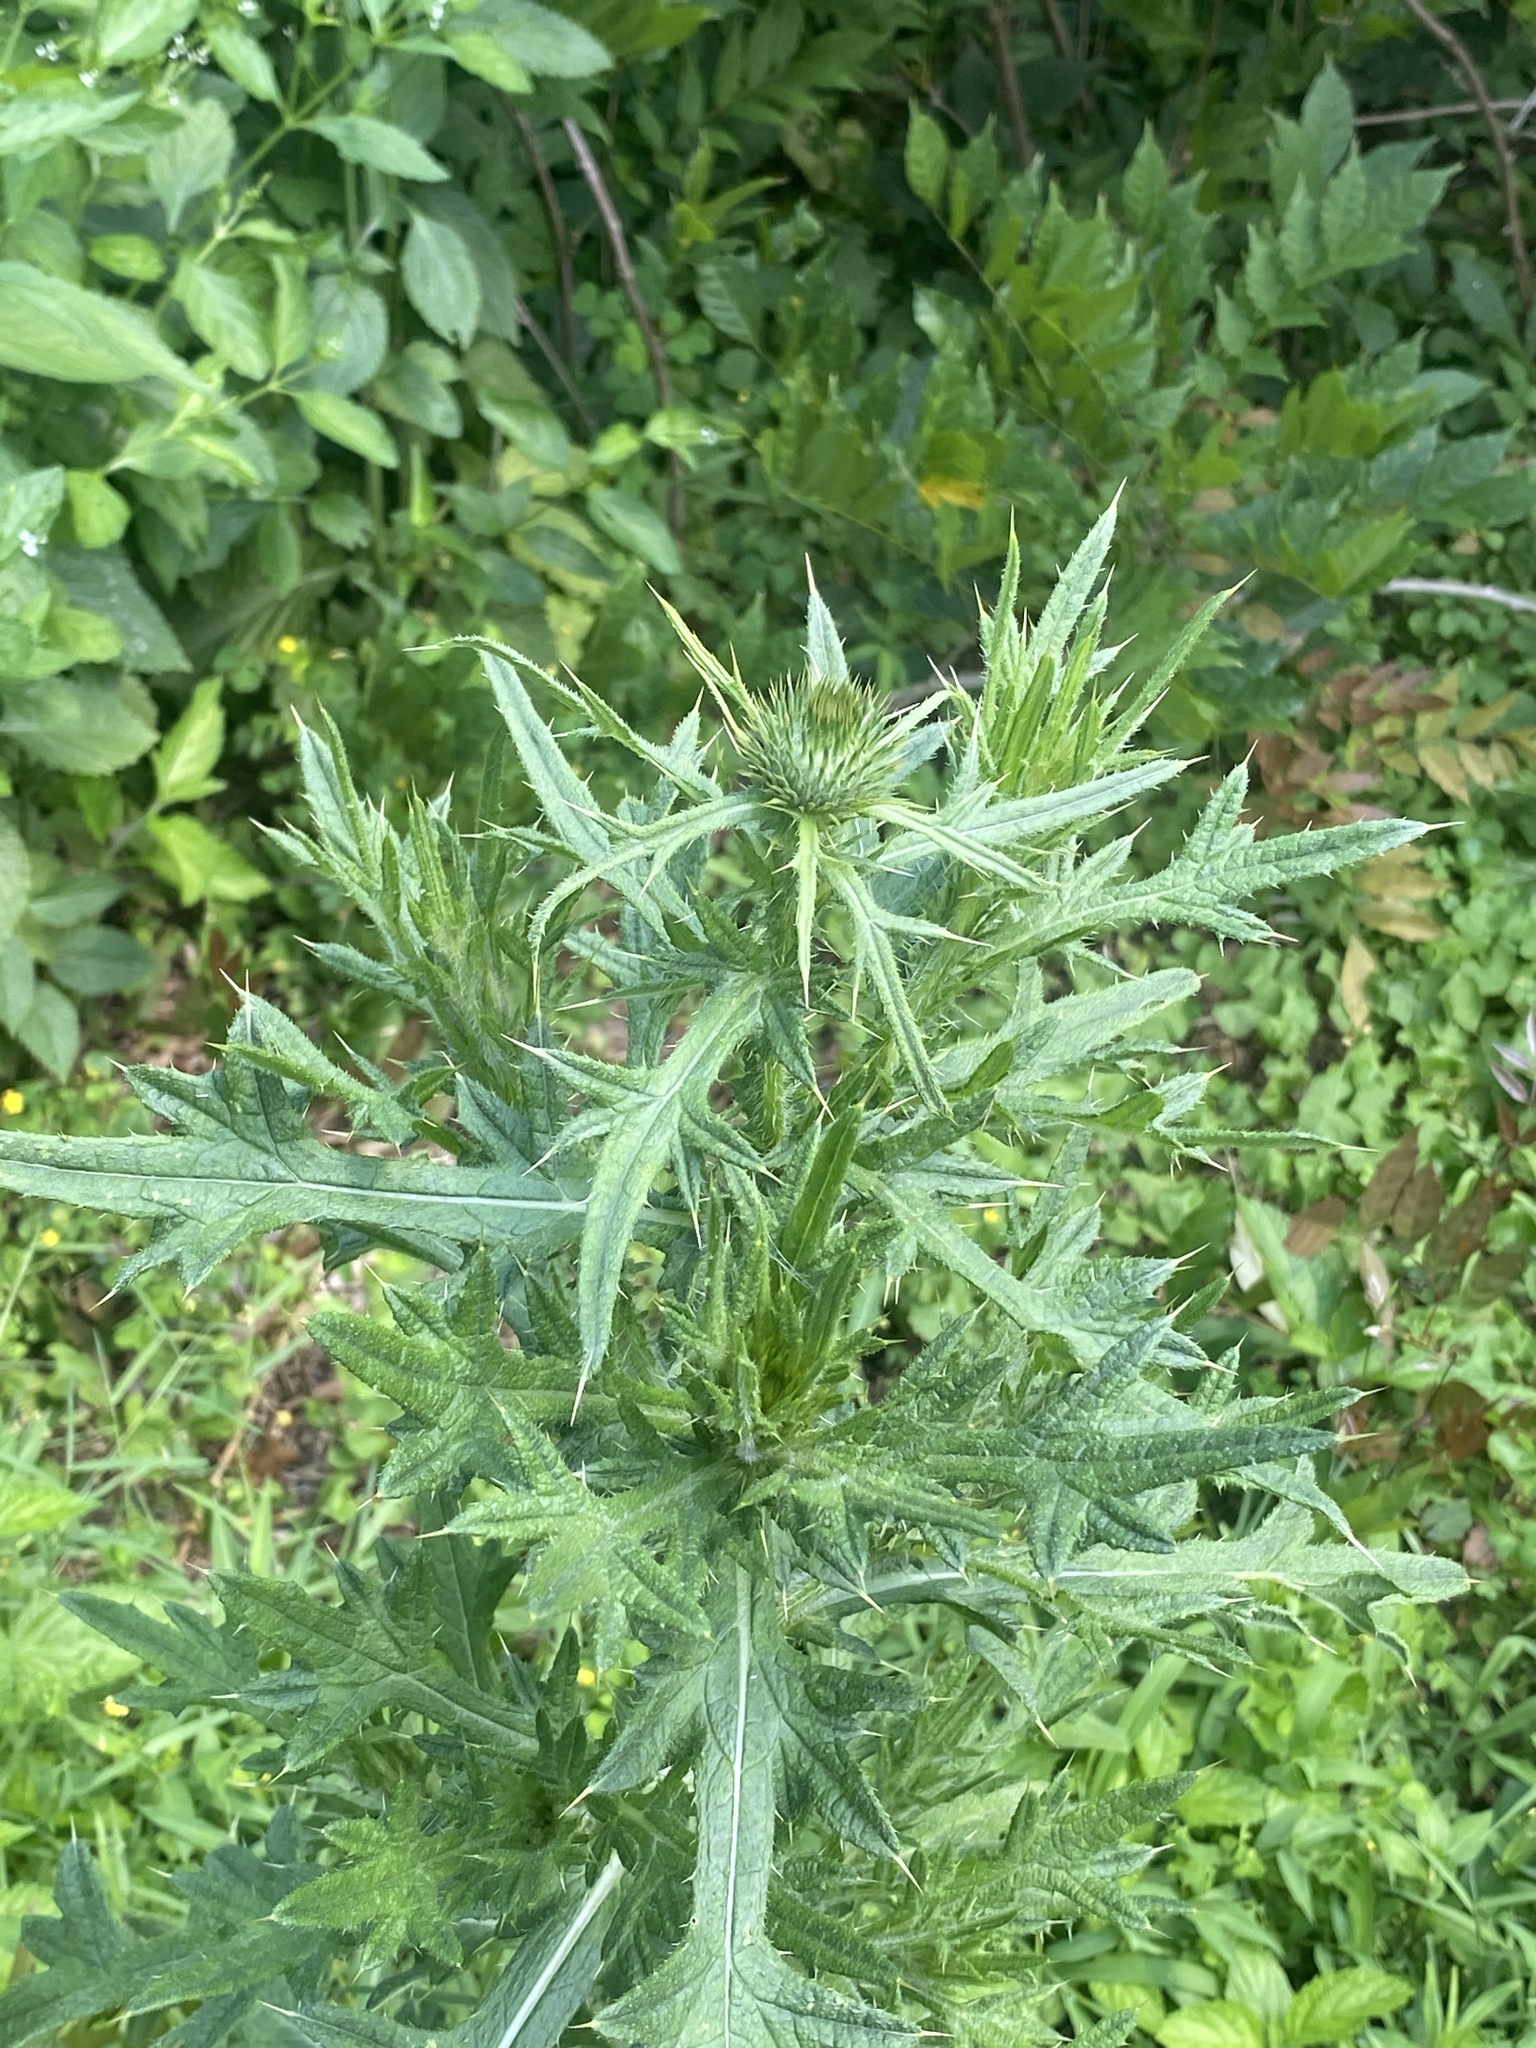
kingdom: Plantae
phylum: Tracheophyta
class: Magnoliopsida
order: Asterales
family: Asteraceae
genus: Cirsium
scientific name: Cirsium vulgare
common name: Bull thistle
